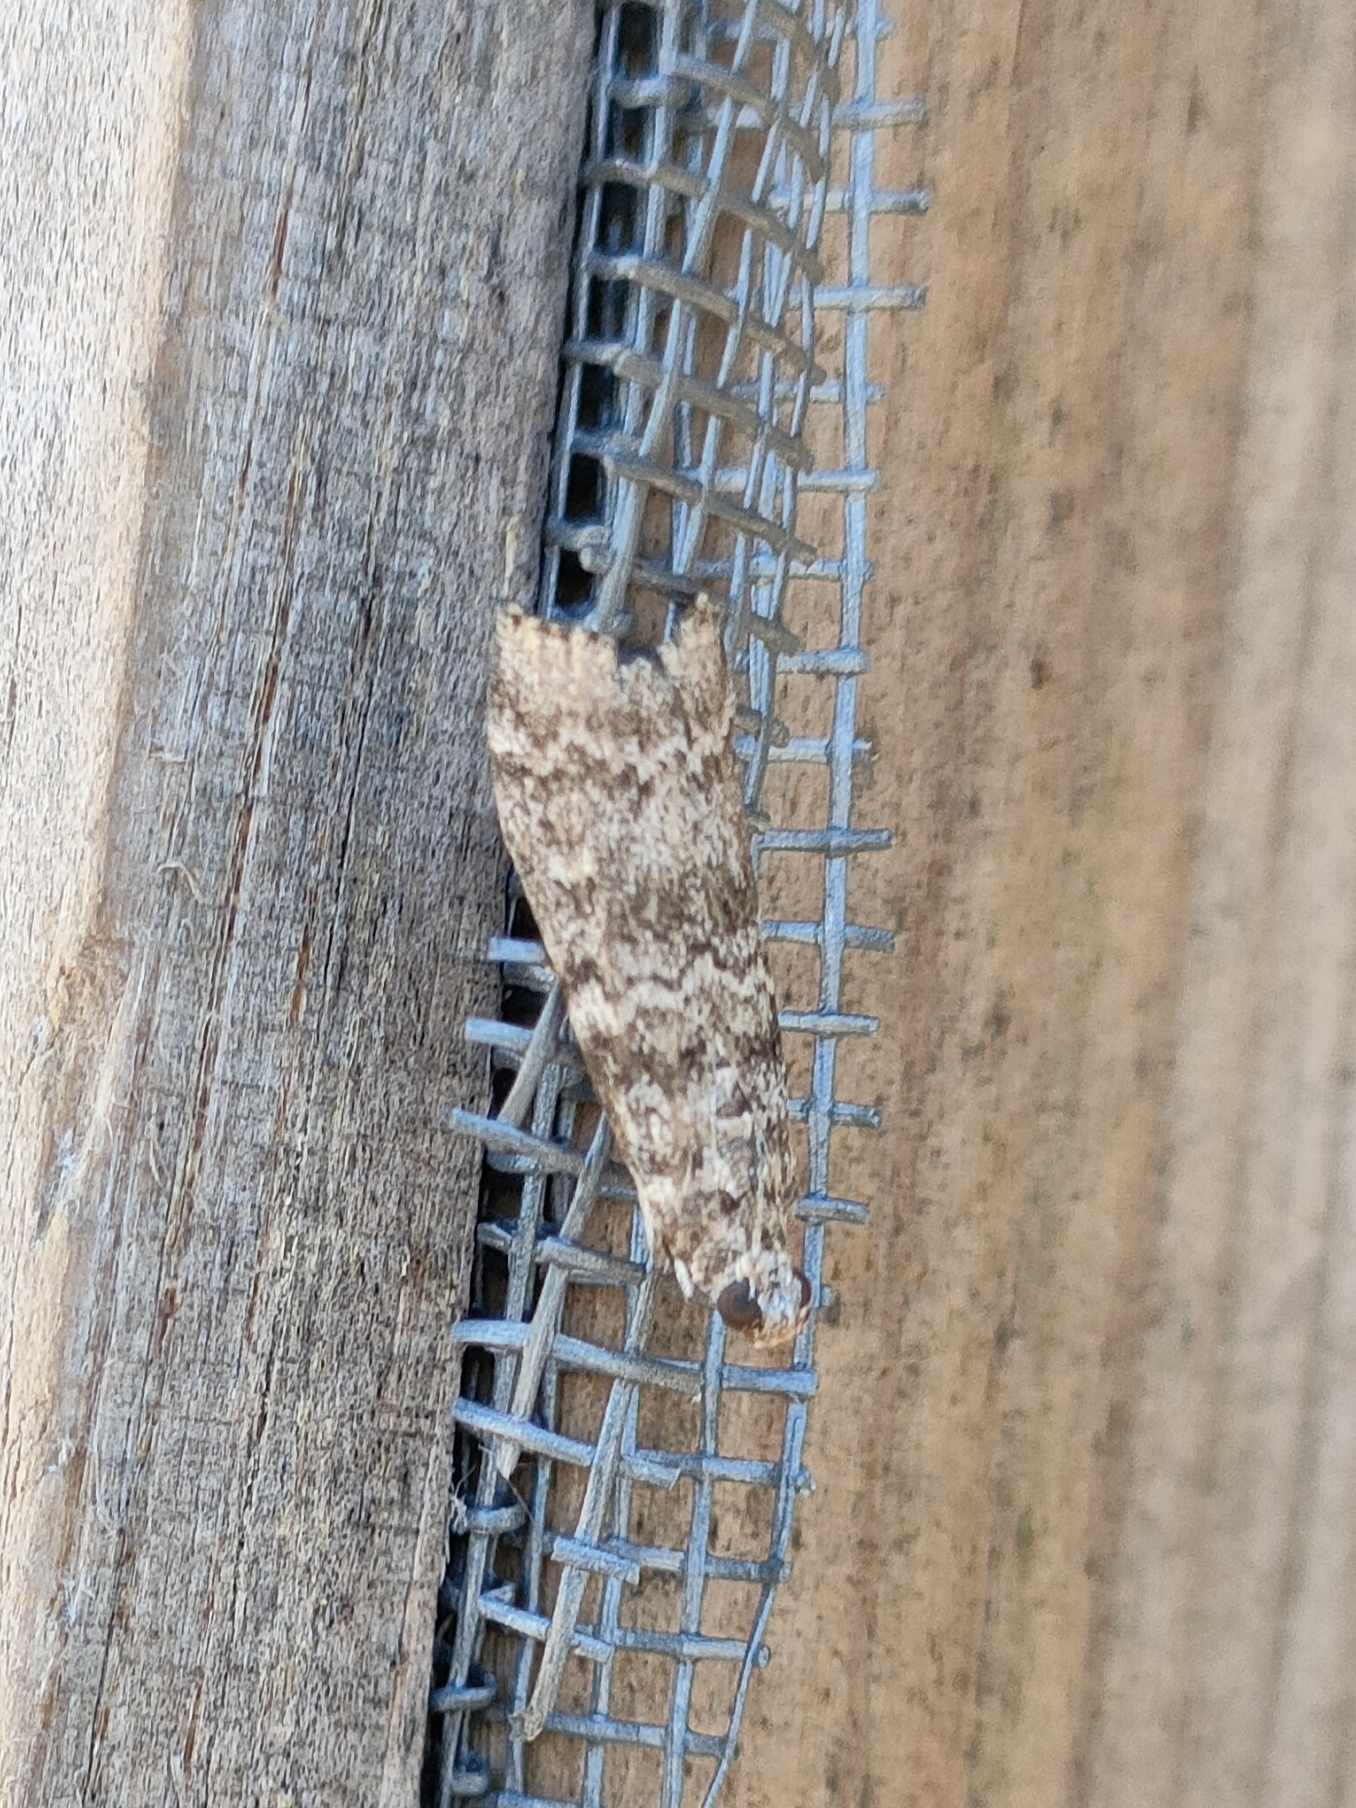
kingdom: Animalia
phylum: Arthropoda
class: Insecta
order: Lepidoptera
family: Pyralidae
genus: Dioryctria
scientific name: Dioryctria mutatella
